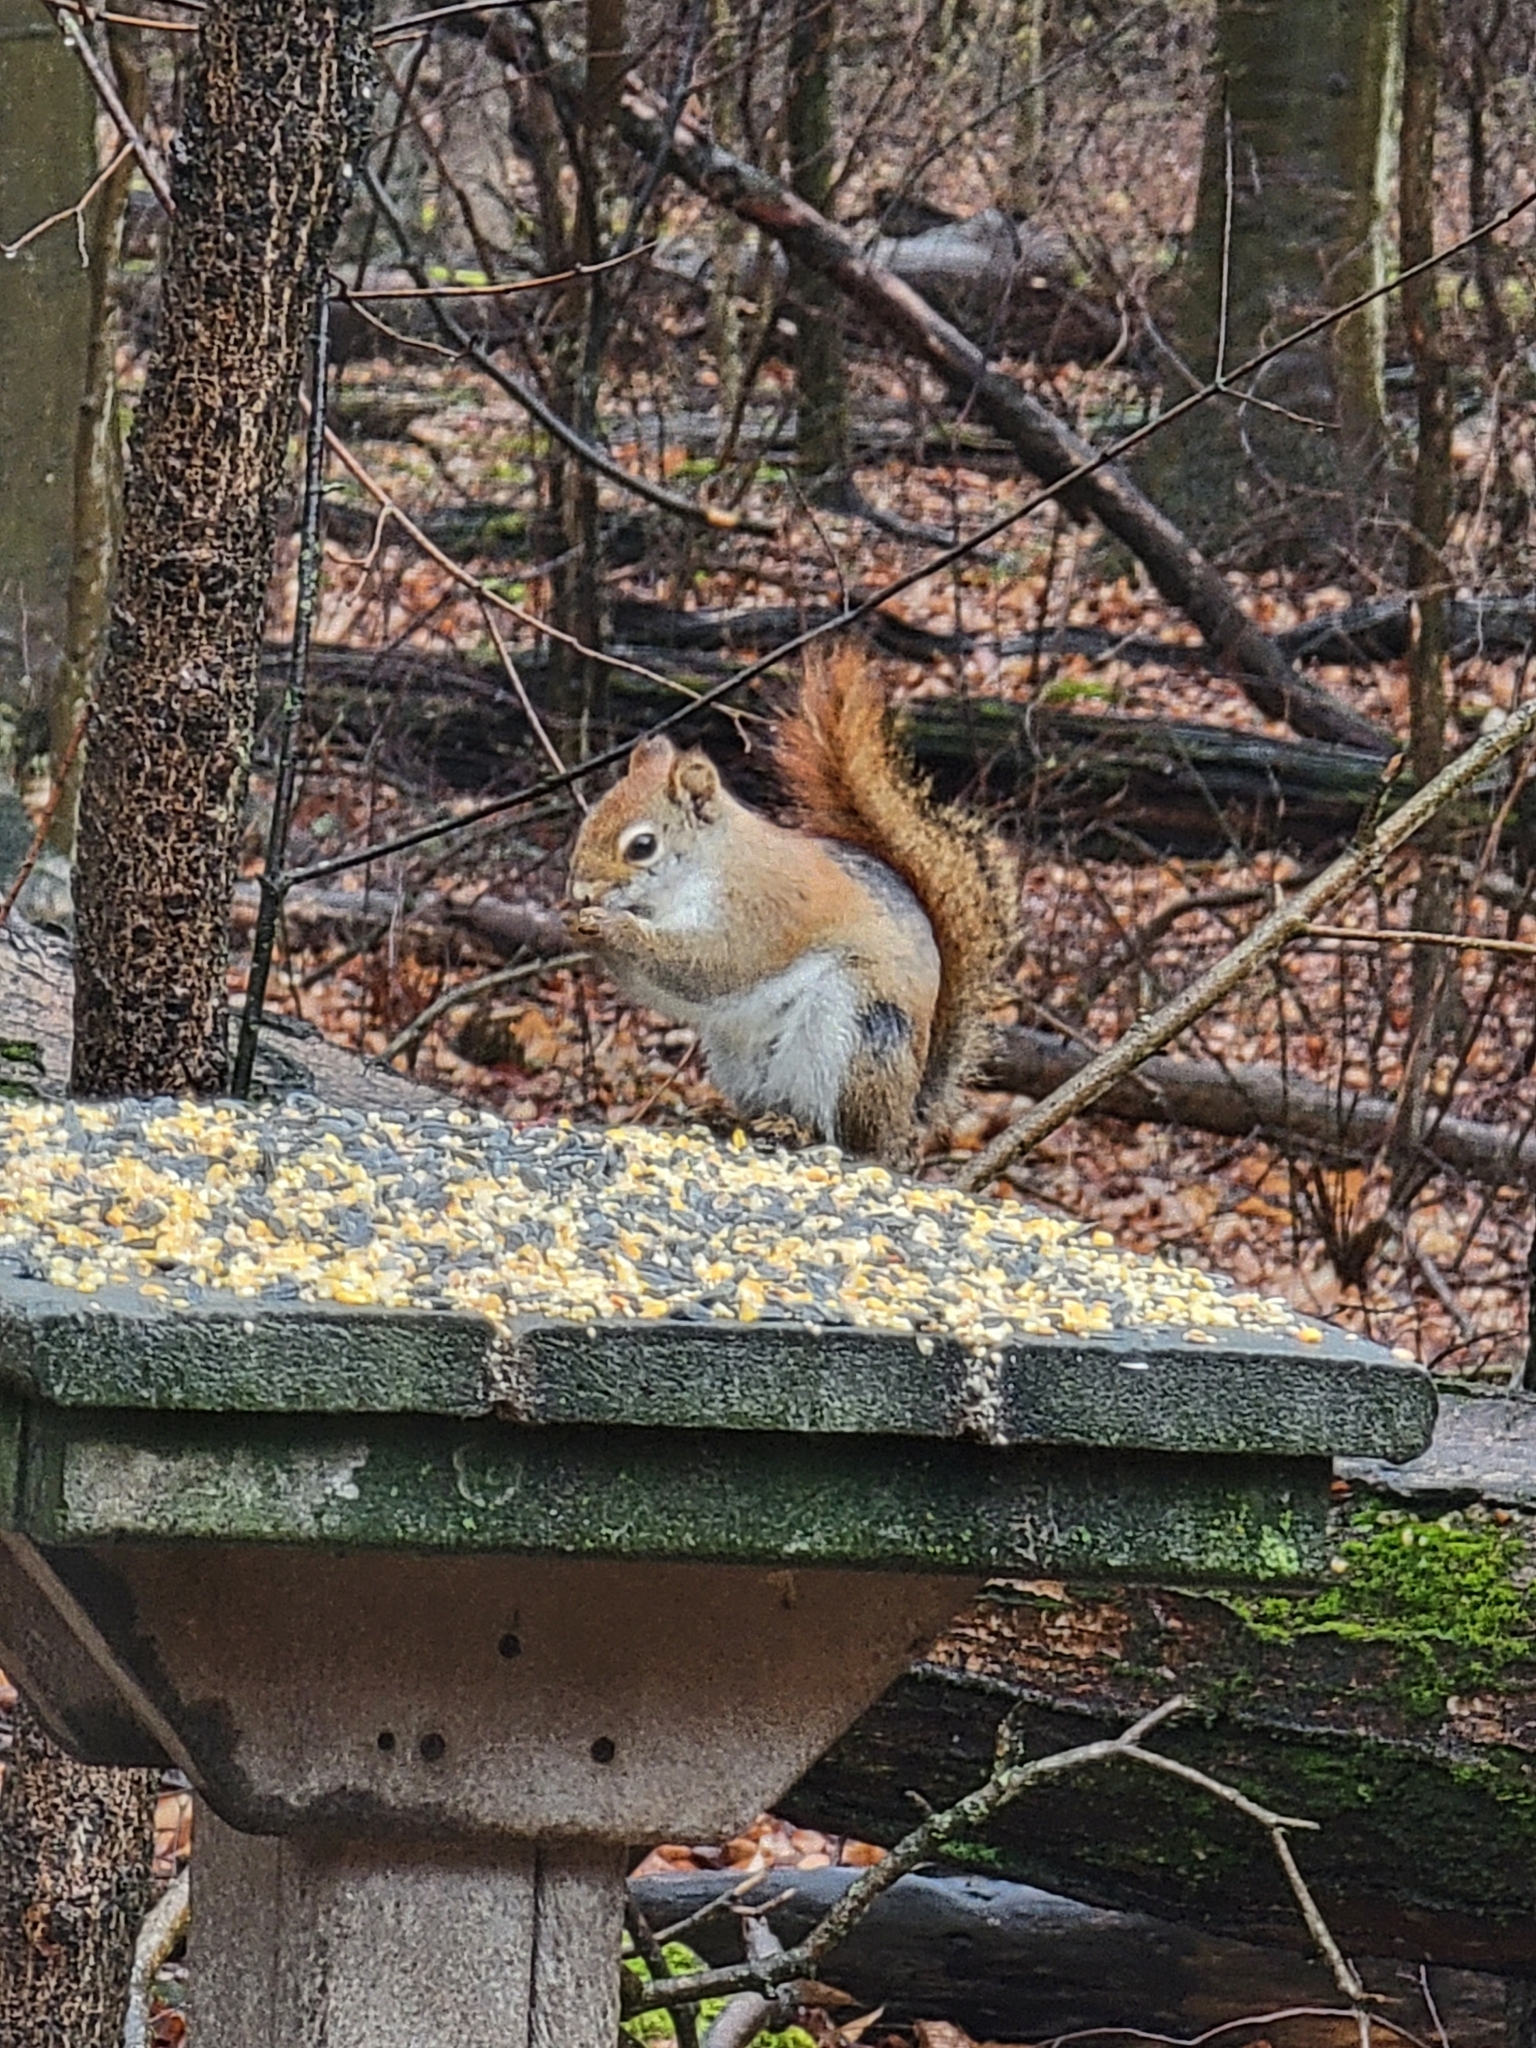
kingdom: Animalia
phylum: Chordata
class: Mammalia
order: Rodentia
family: Sciuridae
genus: Tamiasciurus
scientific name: Tamiasciurus hudsonicus
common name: Red squirrel
